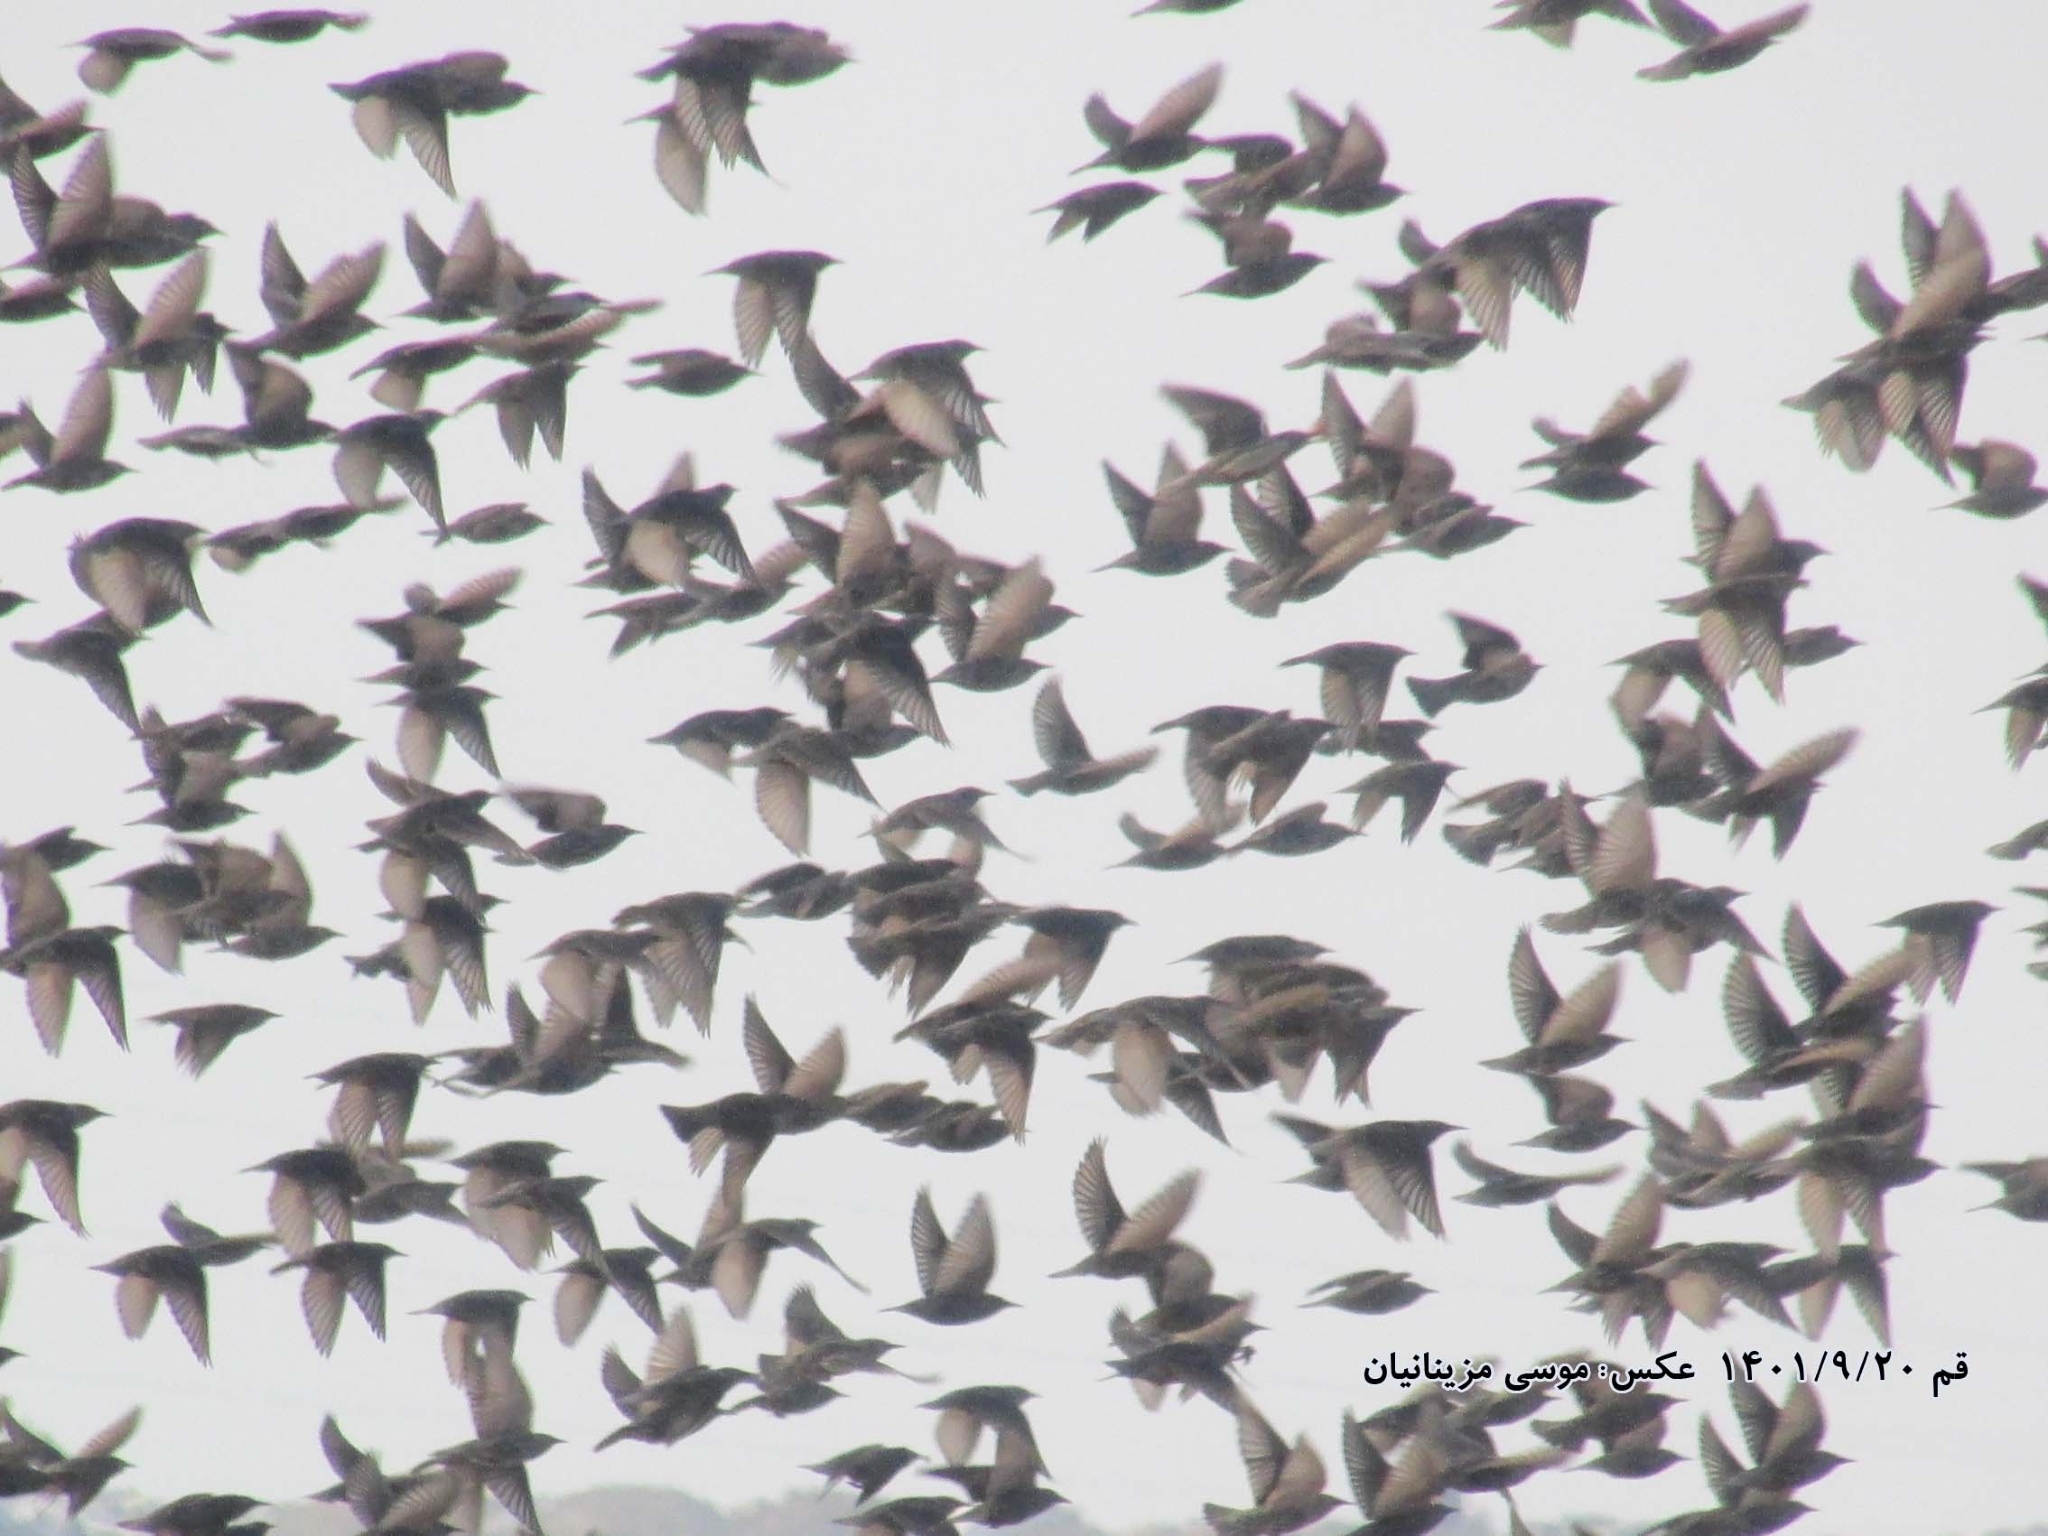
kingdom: Animalia
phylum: Chordata
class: Aves
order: Passeriformes
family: Sturnidae
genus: Sturnus
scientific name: Sturnus vulgaris
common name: Common starling
